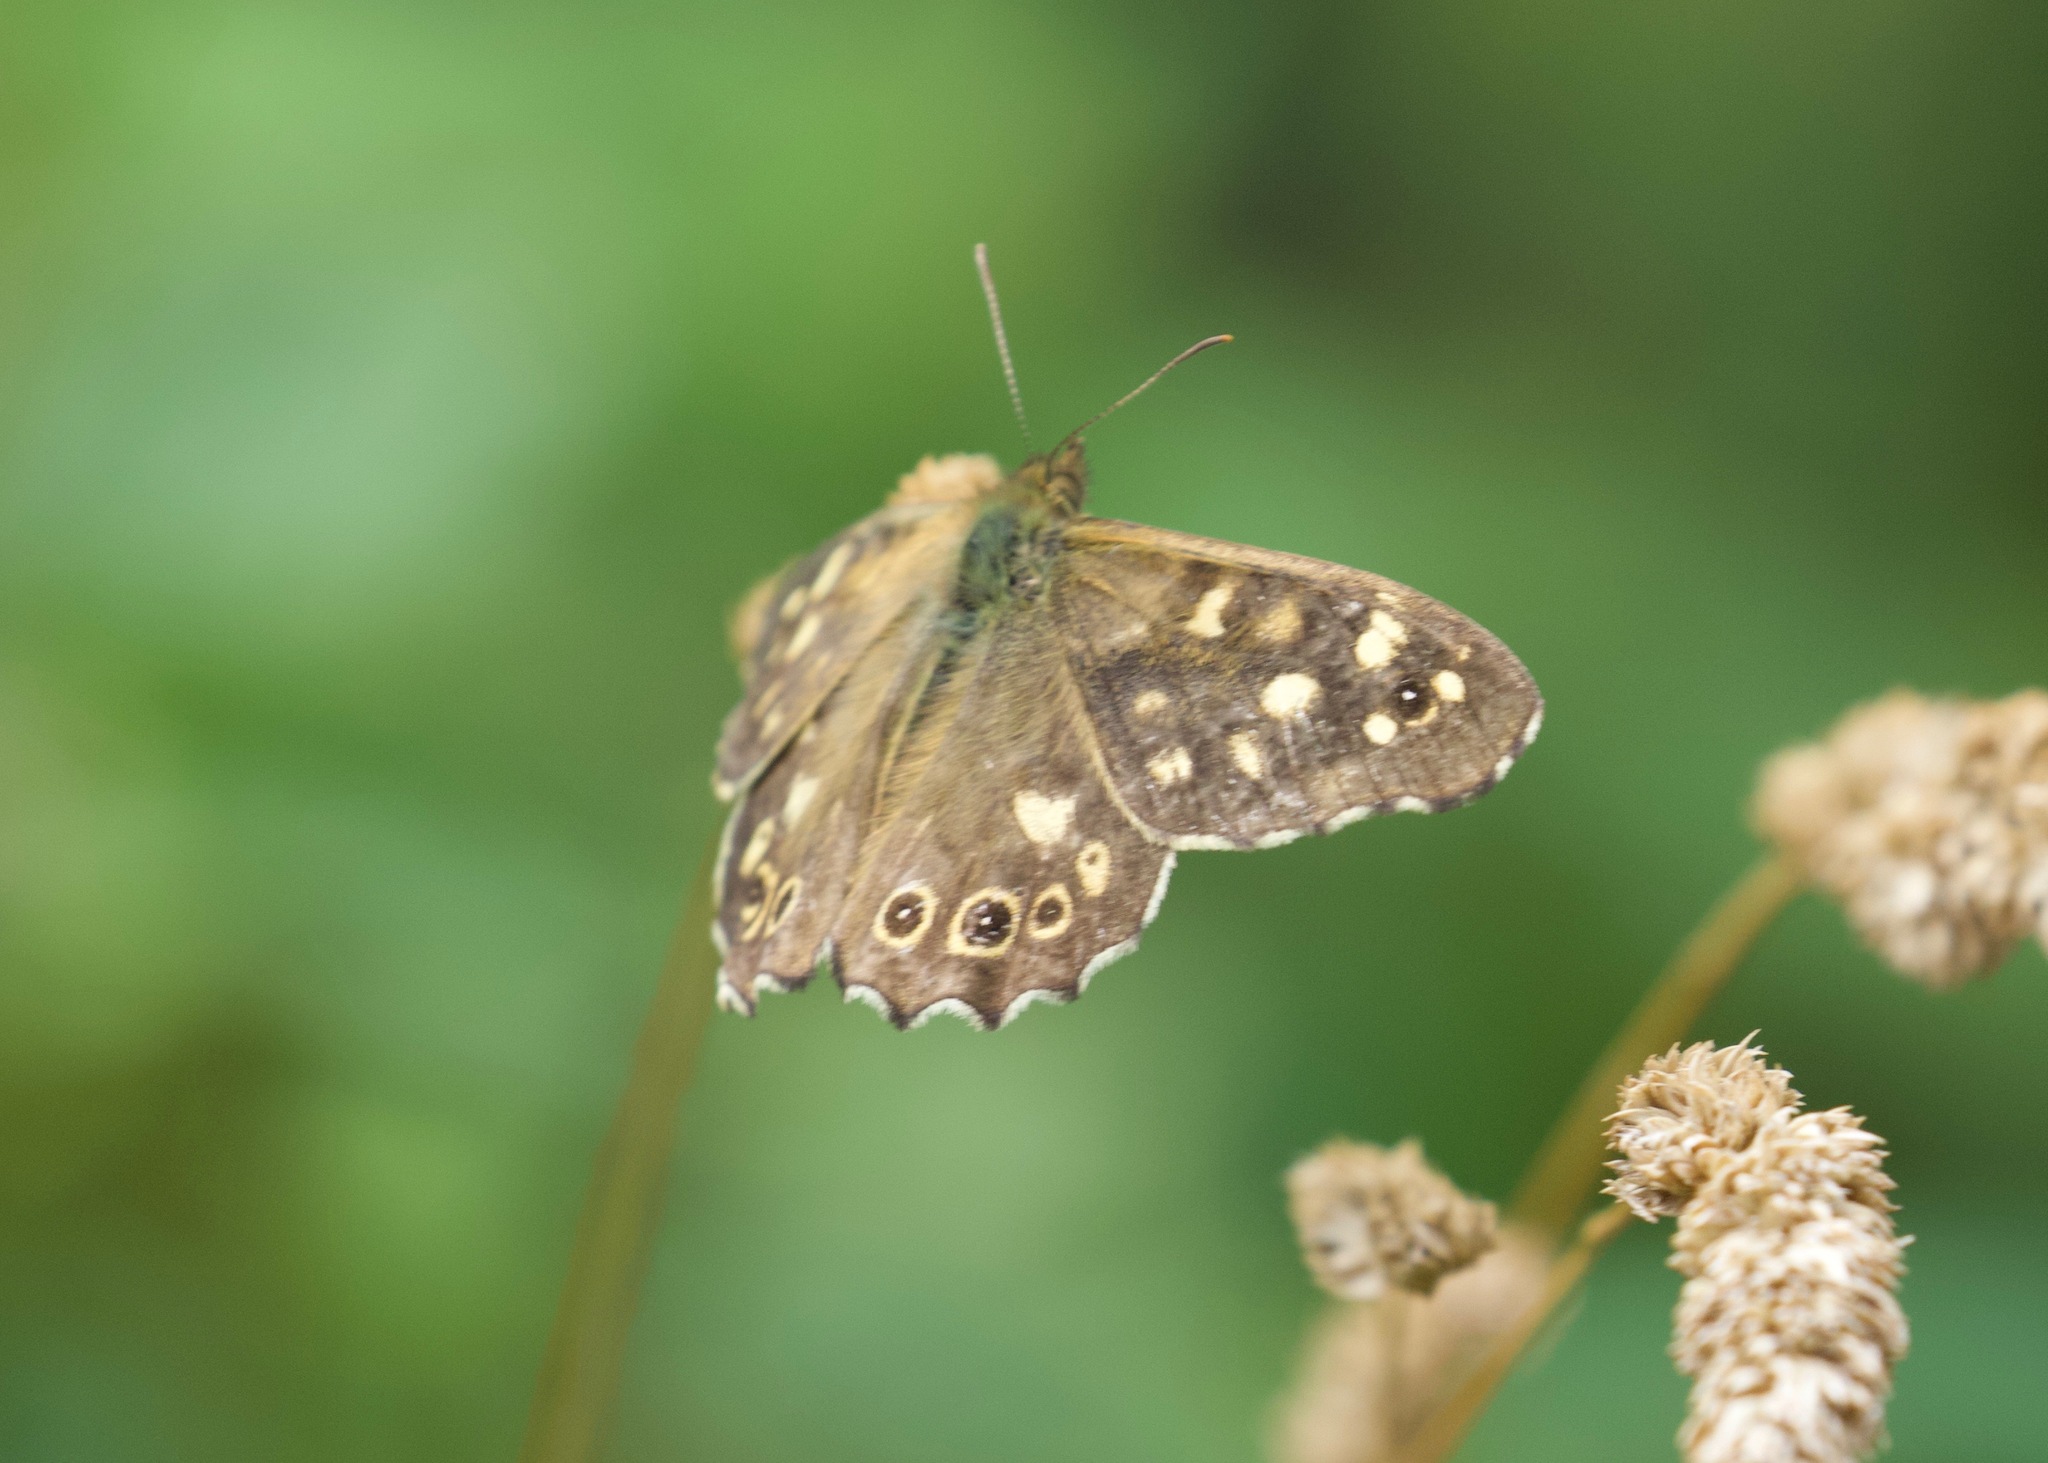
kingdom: Animalia
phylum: Arthropoda
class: Insecta
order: Lepidoptera
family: Nymphalidae
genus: Pararge
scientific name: Pararge aegeria
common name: Speckled wood
